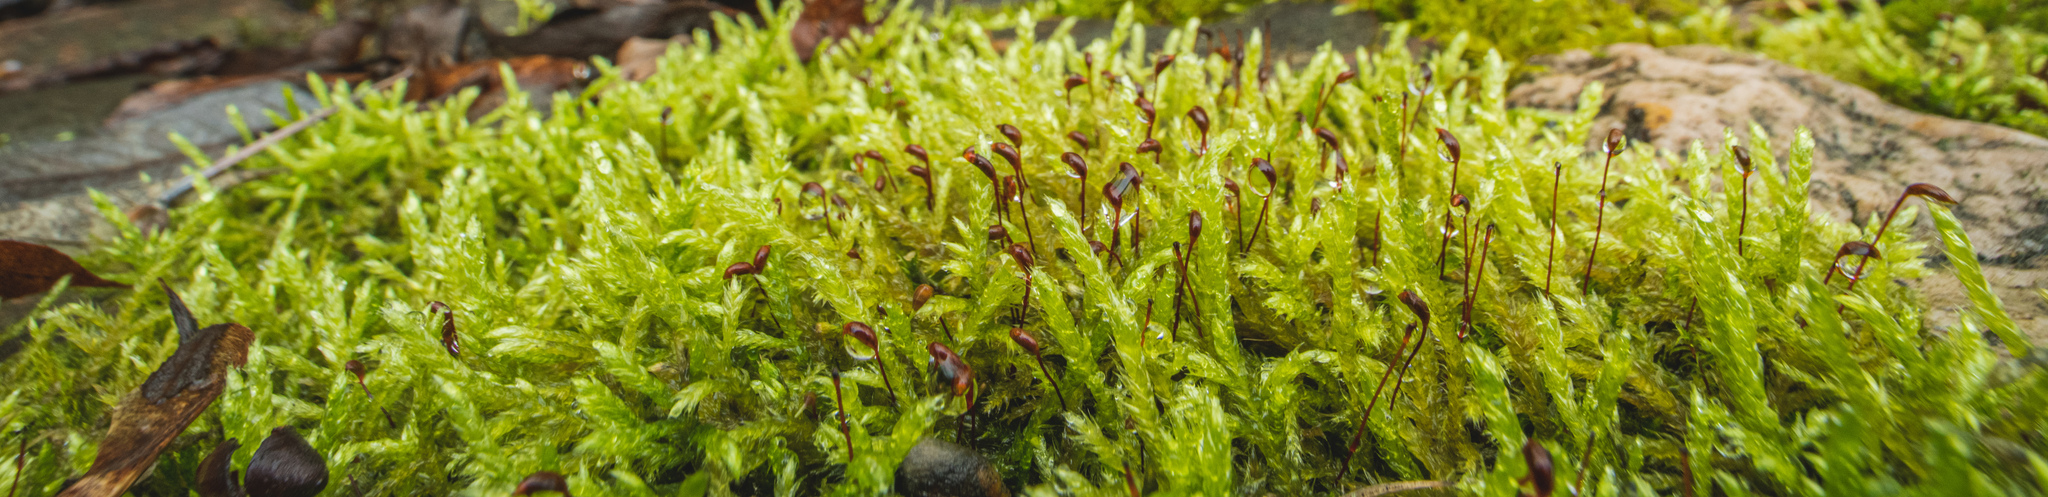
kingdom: Plantae
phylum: Bryophyta
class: Bryopsida
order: Hypnales
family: Brachytheciaceae
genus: Brachythecium
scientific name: Brachythecium rutabulum
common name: Rough-stalked feather-moss
